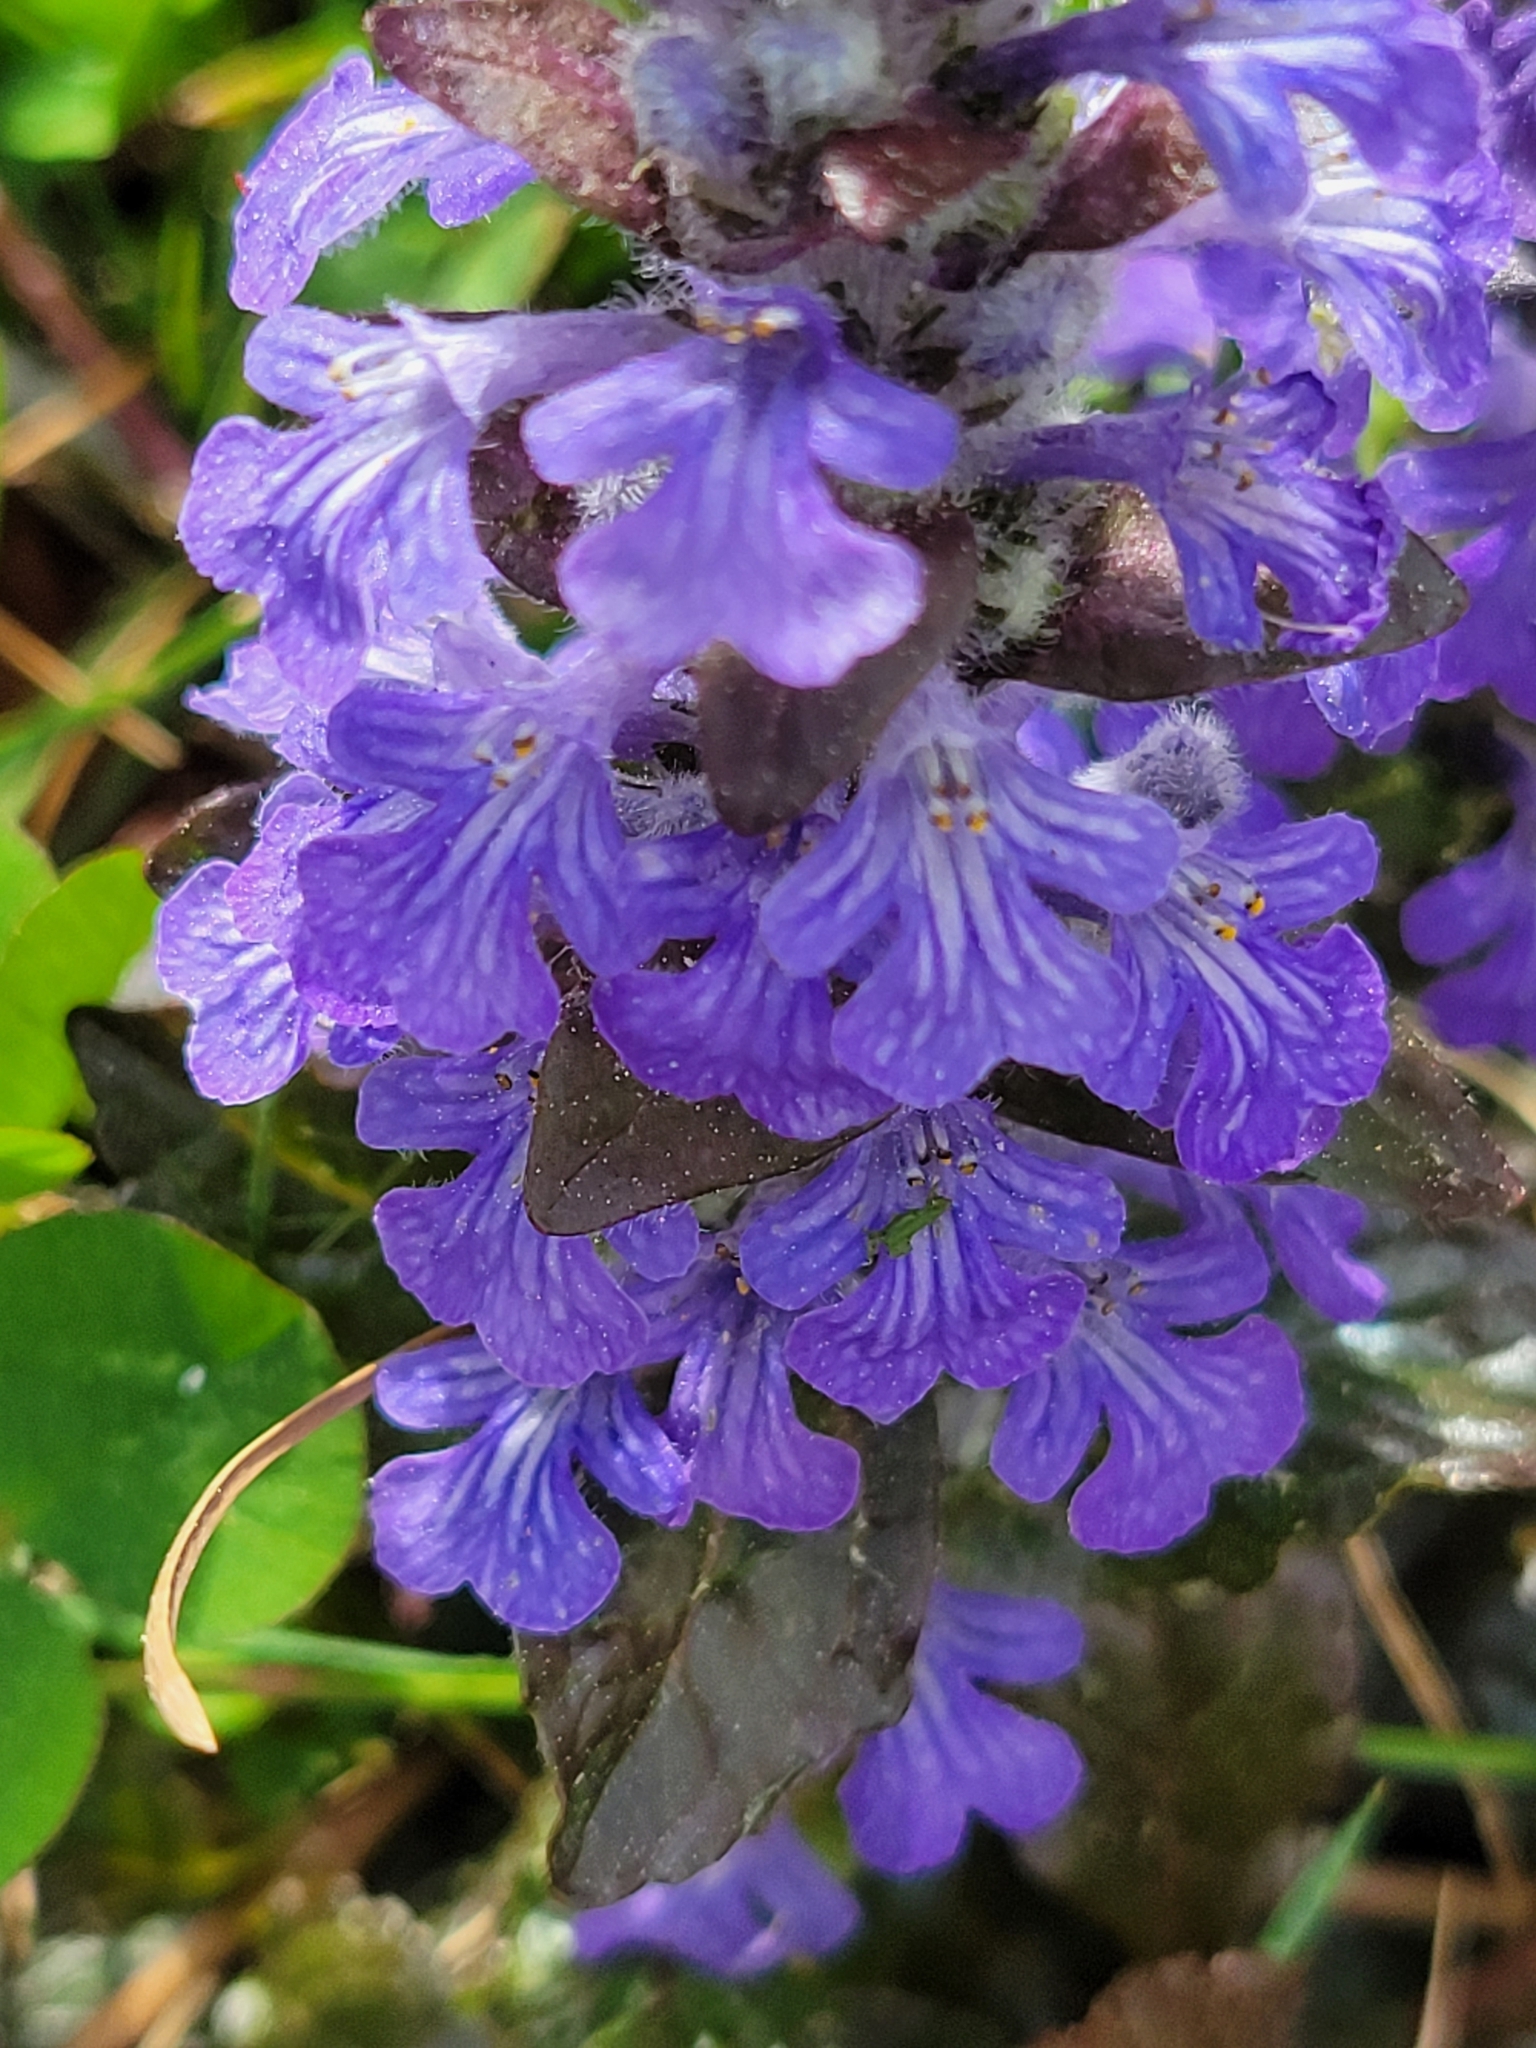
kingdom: Plantae
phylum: Tracheophyta
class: Magnoliopsida
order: Lamiales
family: Lamiaceae
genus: Ajuga
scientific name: Ajuga reptans
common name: Bugle
